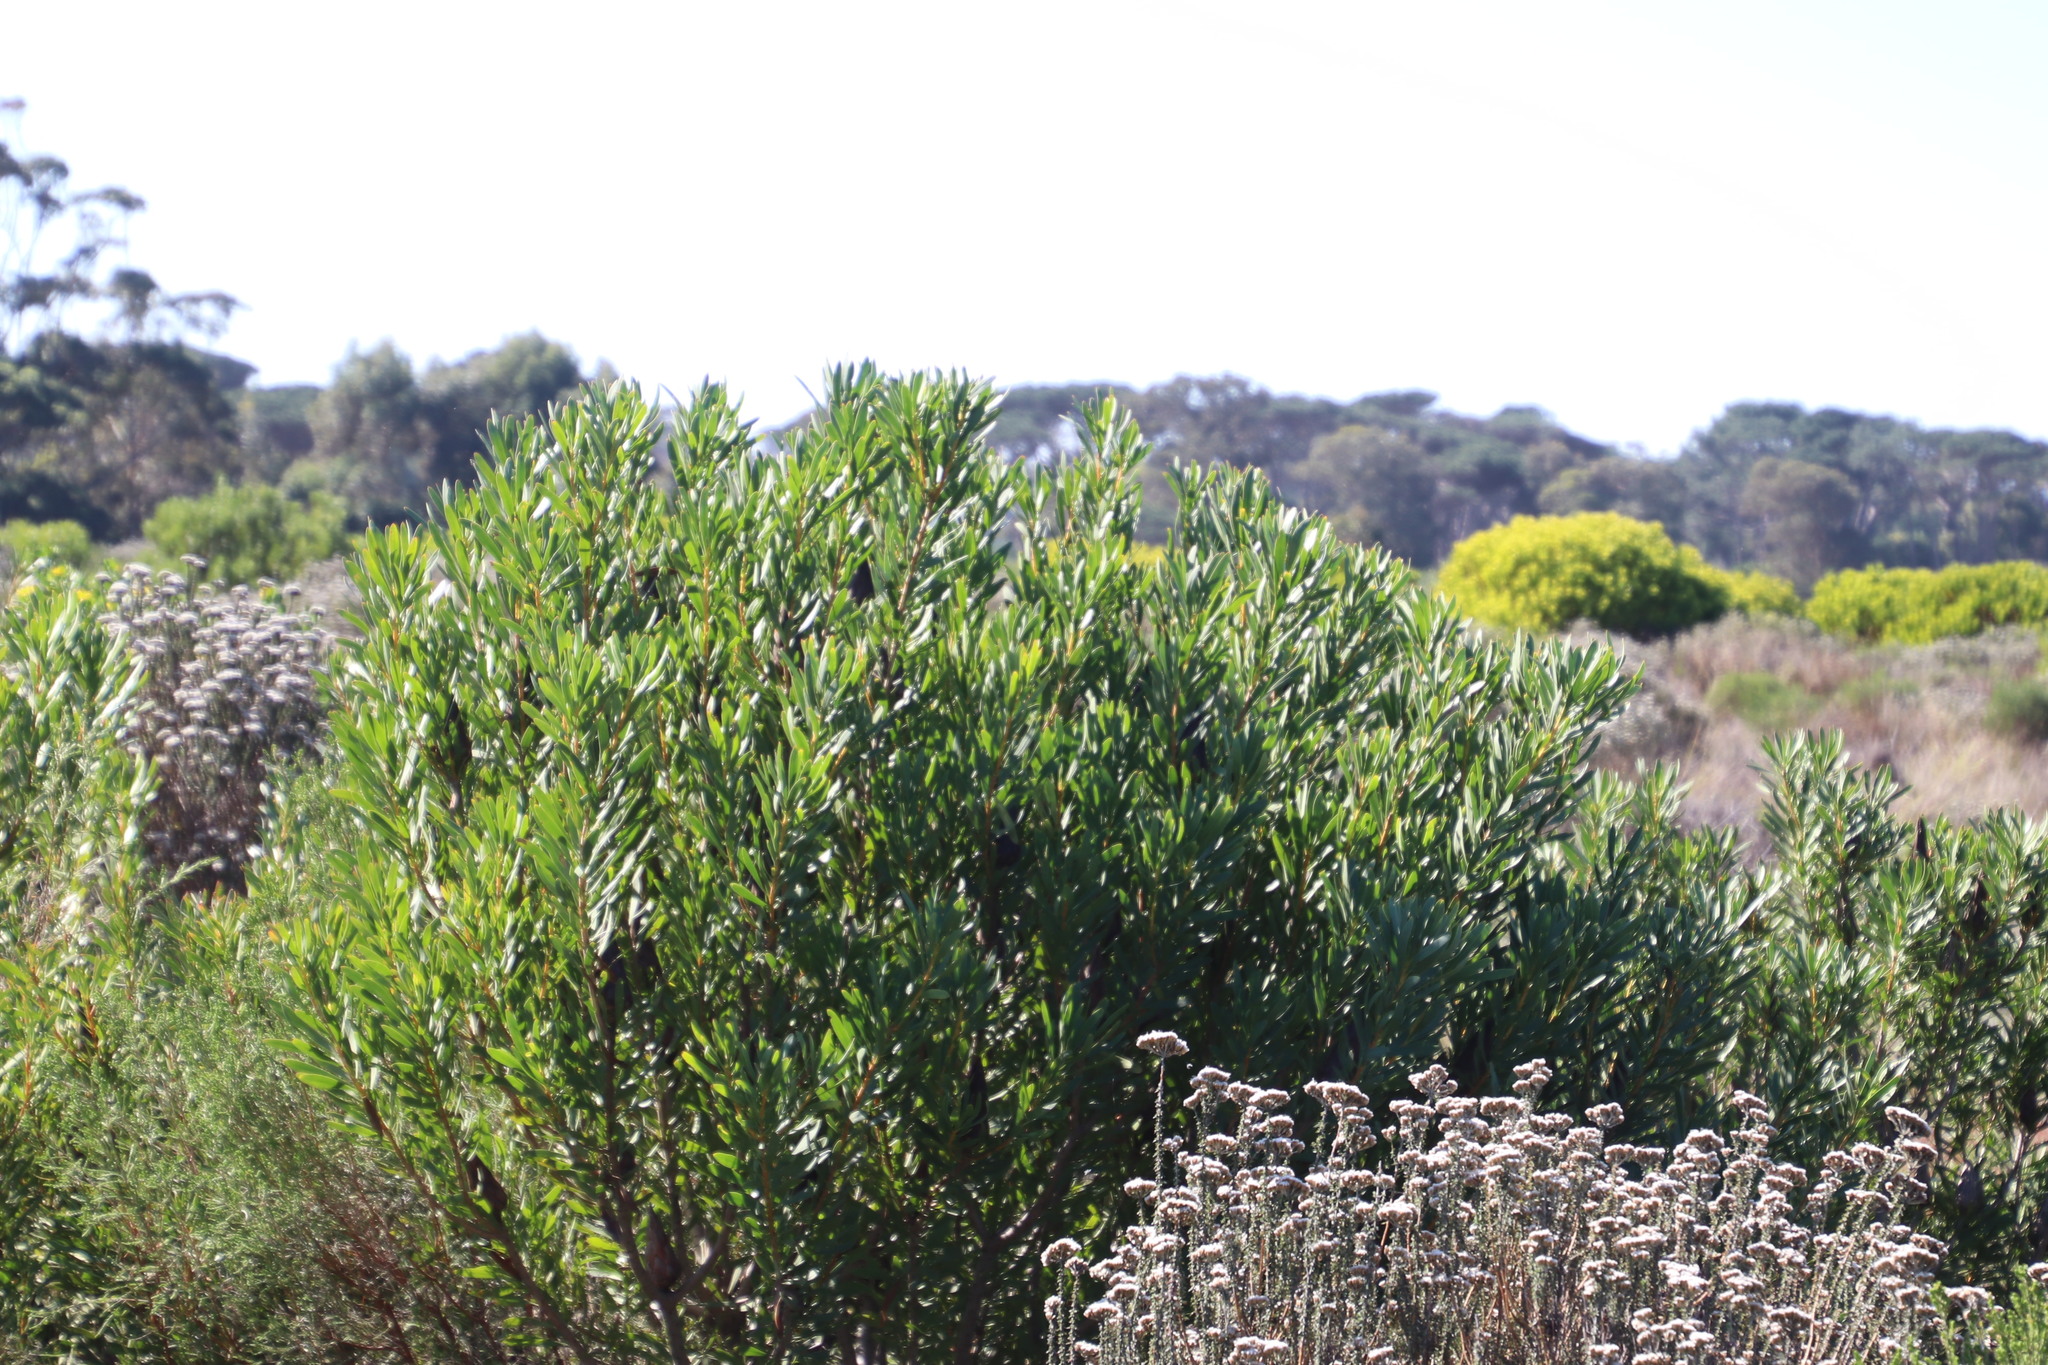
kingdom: Plantae
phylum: Tracheophyta
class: Magnoliopsida
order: Proteales
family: Proteaceae
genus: Protea
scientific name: Protea repens
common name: Sugarbush
